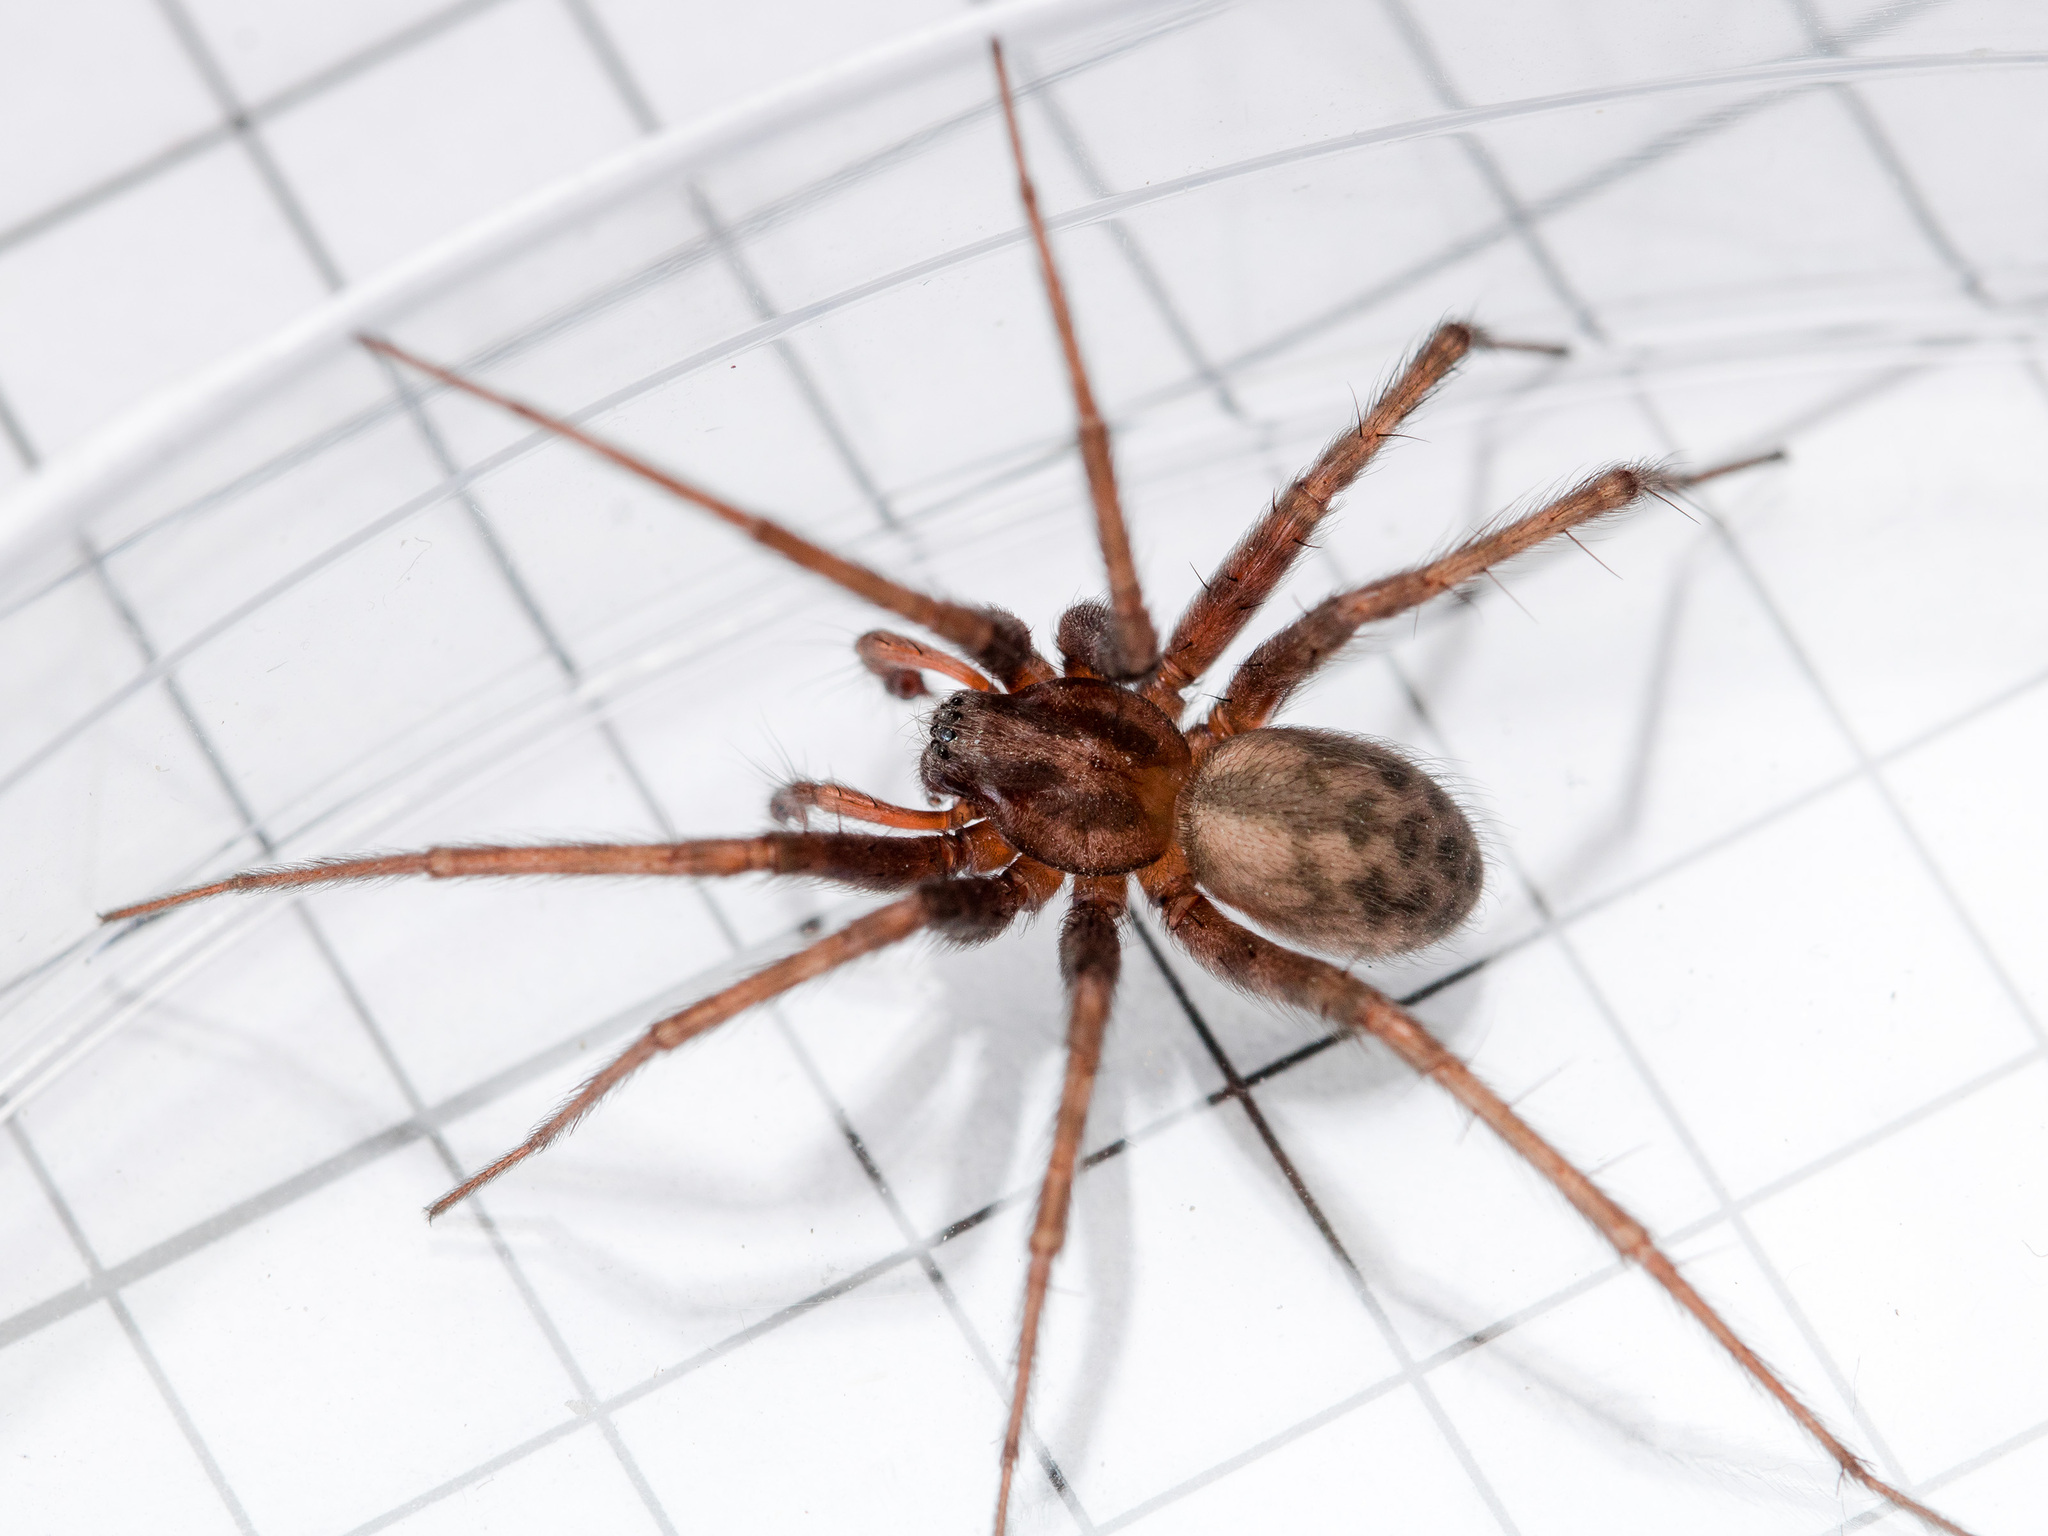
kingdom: Animalia
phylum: Arthropoda
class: Arachnida
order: Araneae
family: Agelenidae
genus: Tegenaria
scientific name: Tegenaria domestica
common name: Barn funnel weaver
